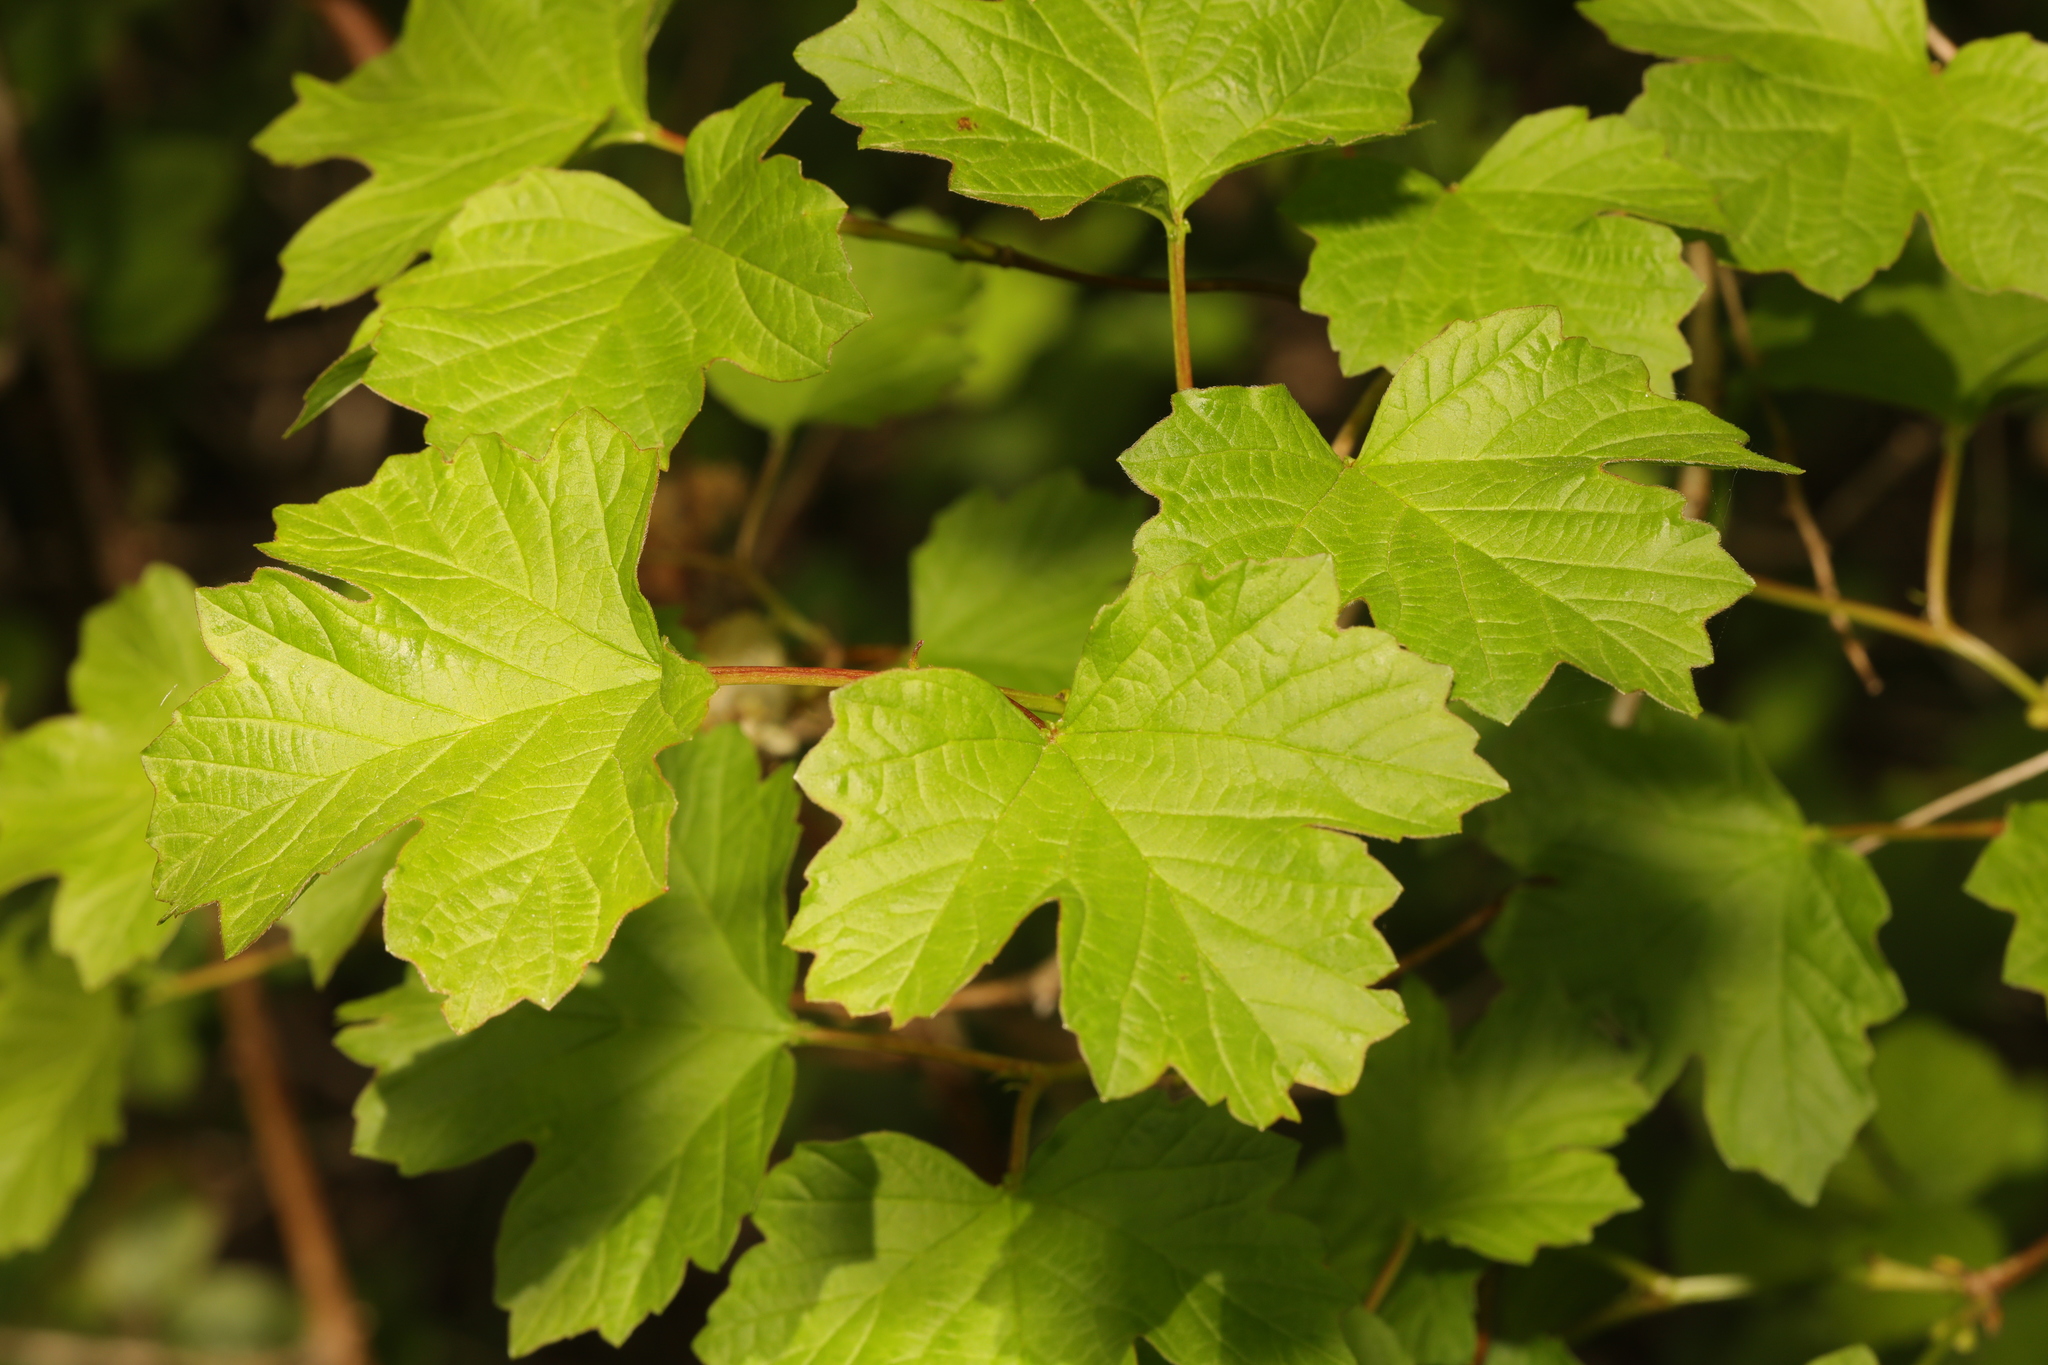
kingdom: Plantae
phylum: Tracheophyta
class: Magnoliopsida
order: Dipsacales
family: Viburnaceae
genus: Viburnum
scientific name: Viburnum opulus
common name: Guelder-rose
